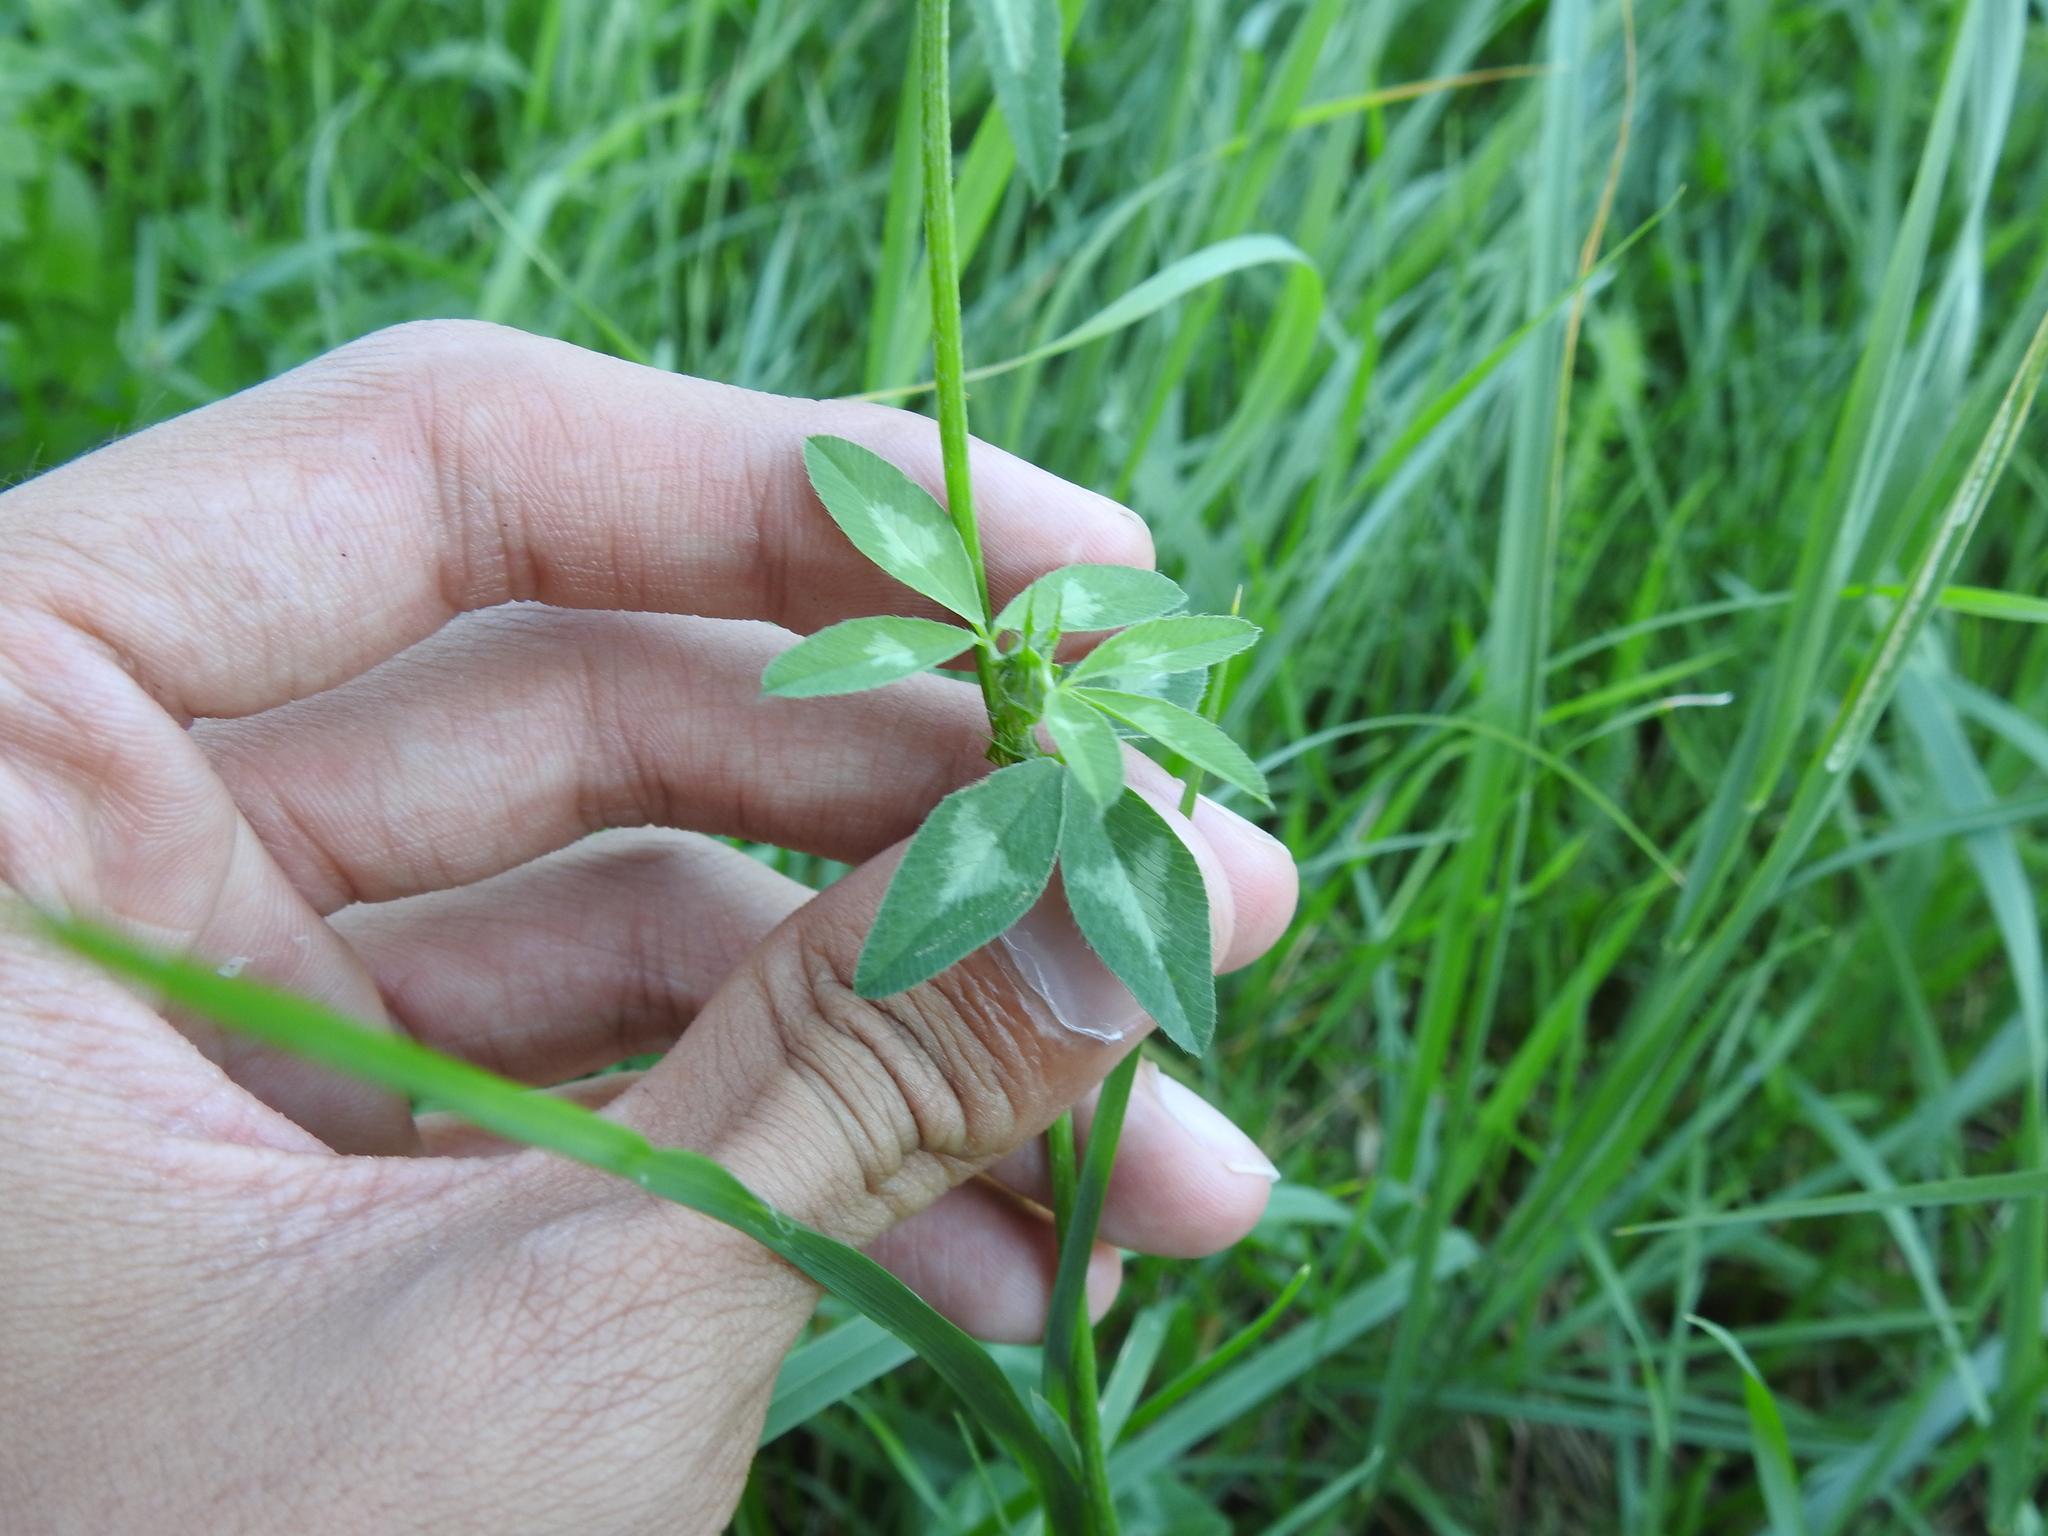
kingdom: Plantae
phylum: Tracheophyta
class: Magnoliopsida
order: Fabales
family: Fabaceae
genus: Trifolium
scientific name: Trifolium pratense
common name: Red clover
